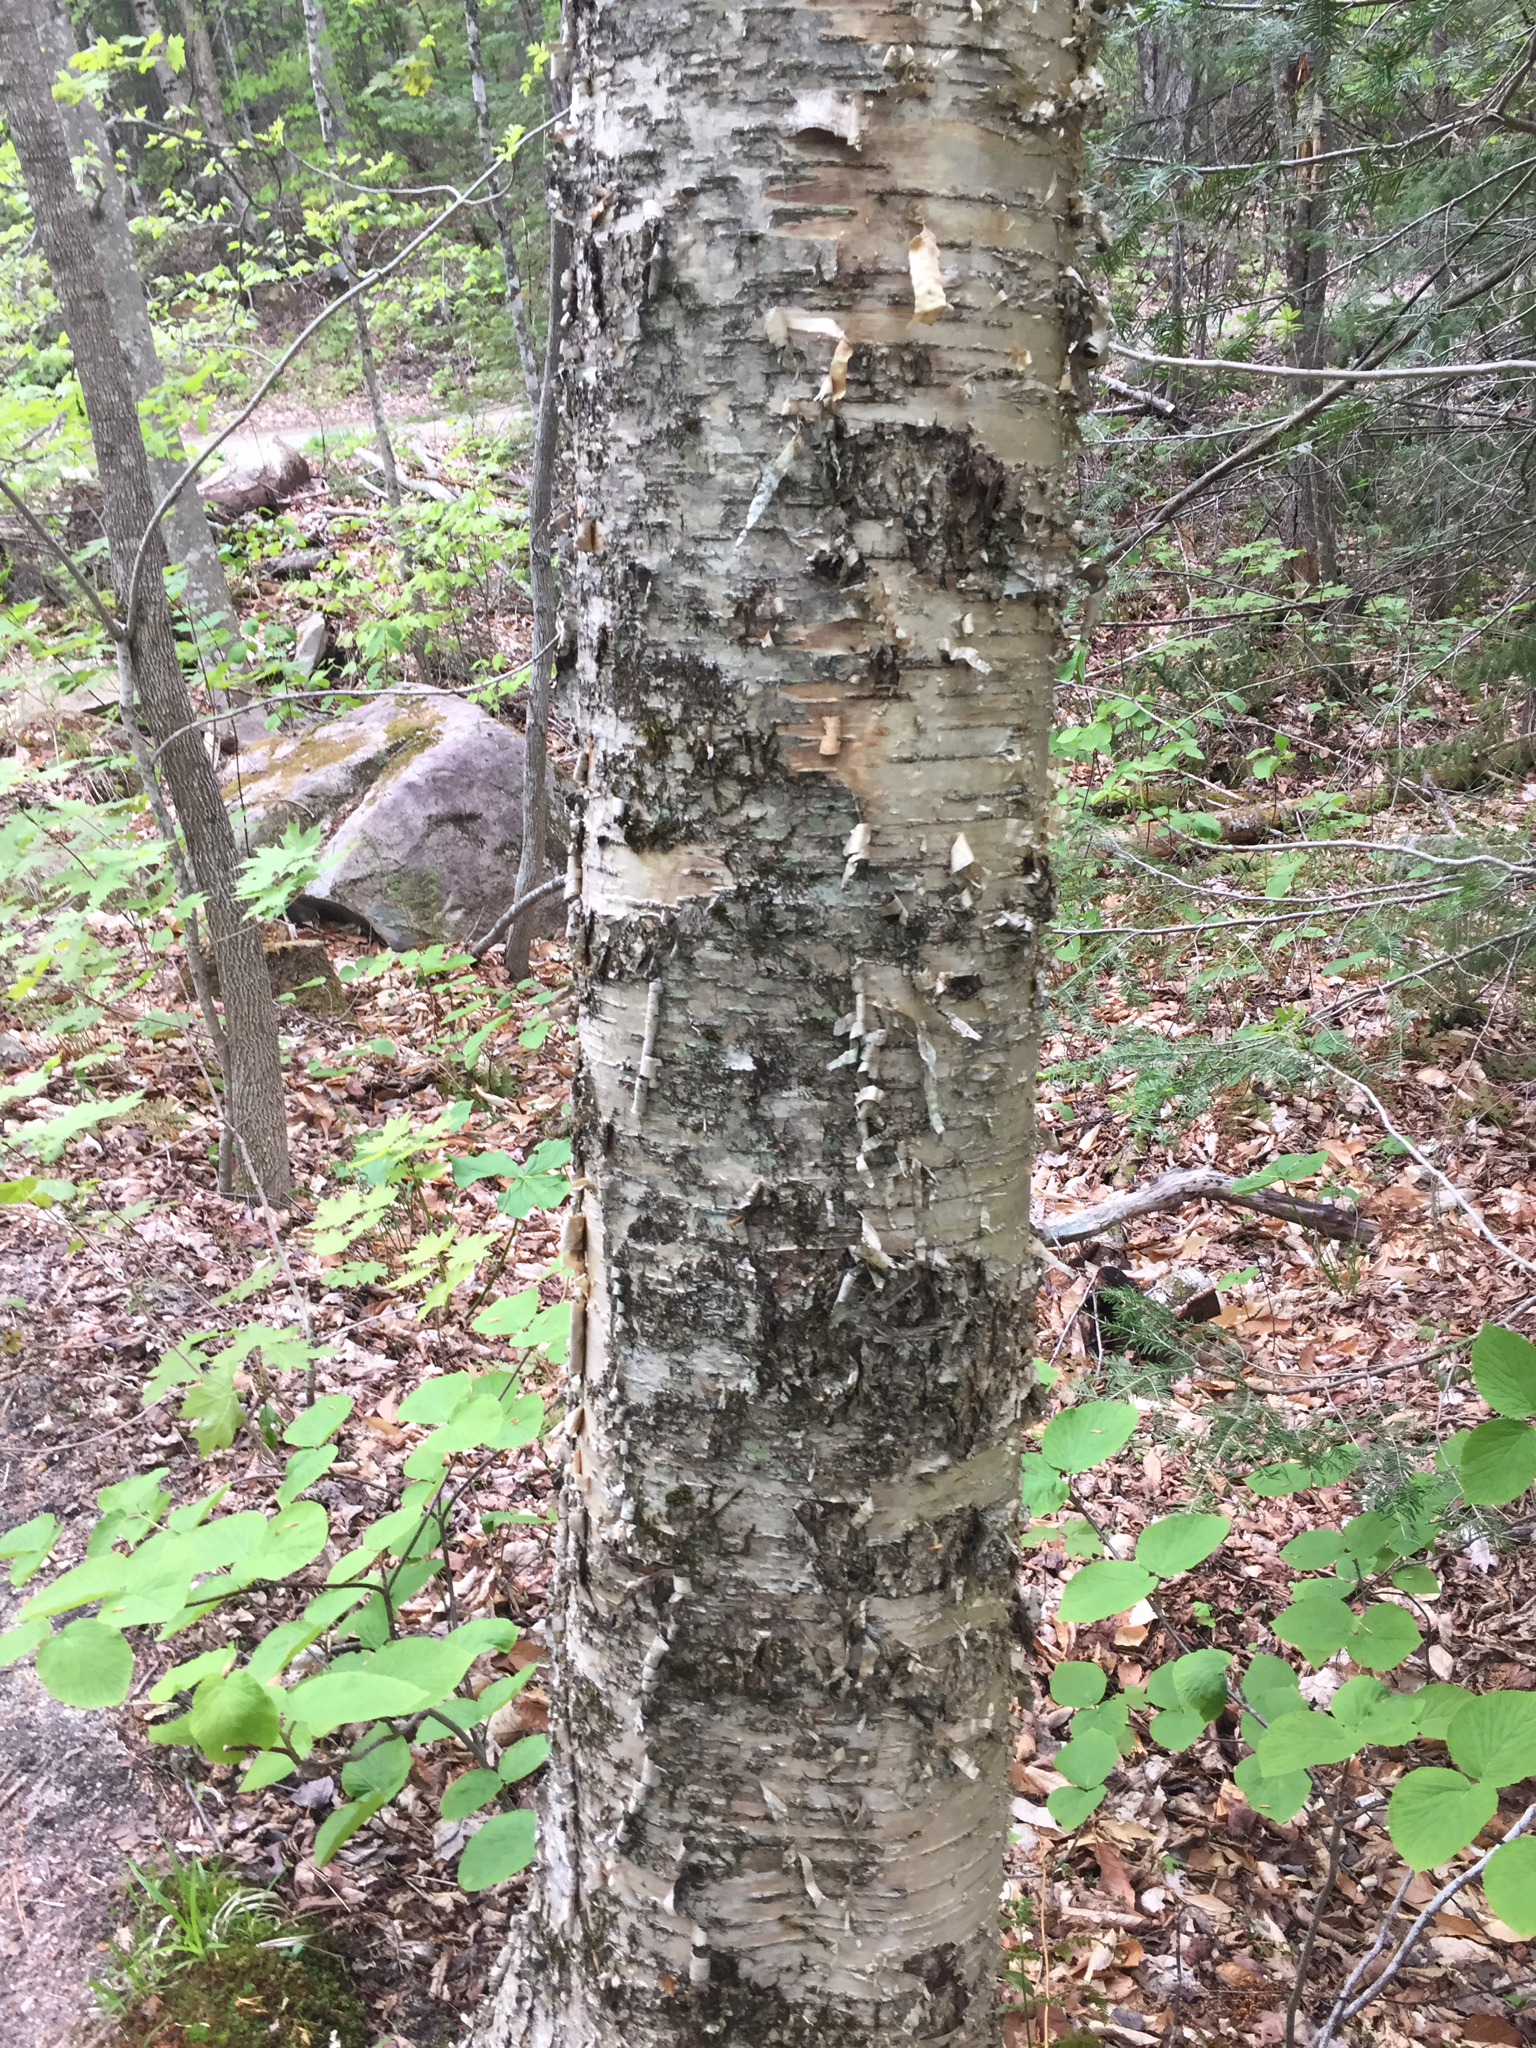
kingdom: Plantae
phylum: Tracheophyta
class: Magnoliopsida
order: Fagales
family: Betulaceae
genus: Betula
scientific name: Betula alleghaniensis
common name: Yellow birch
